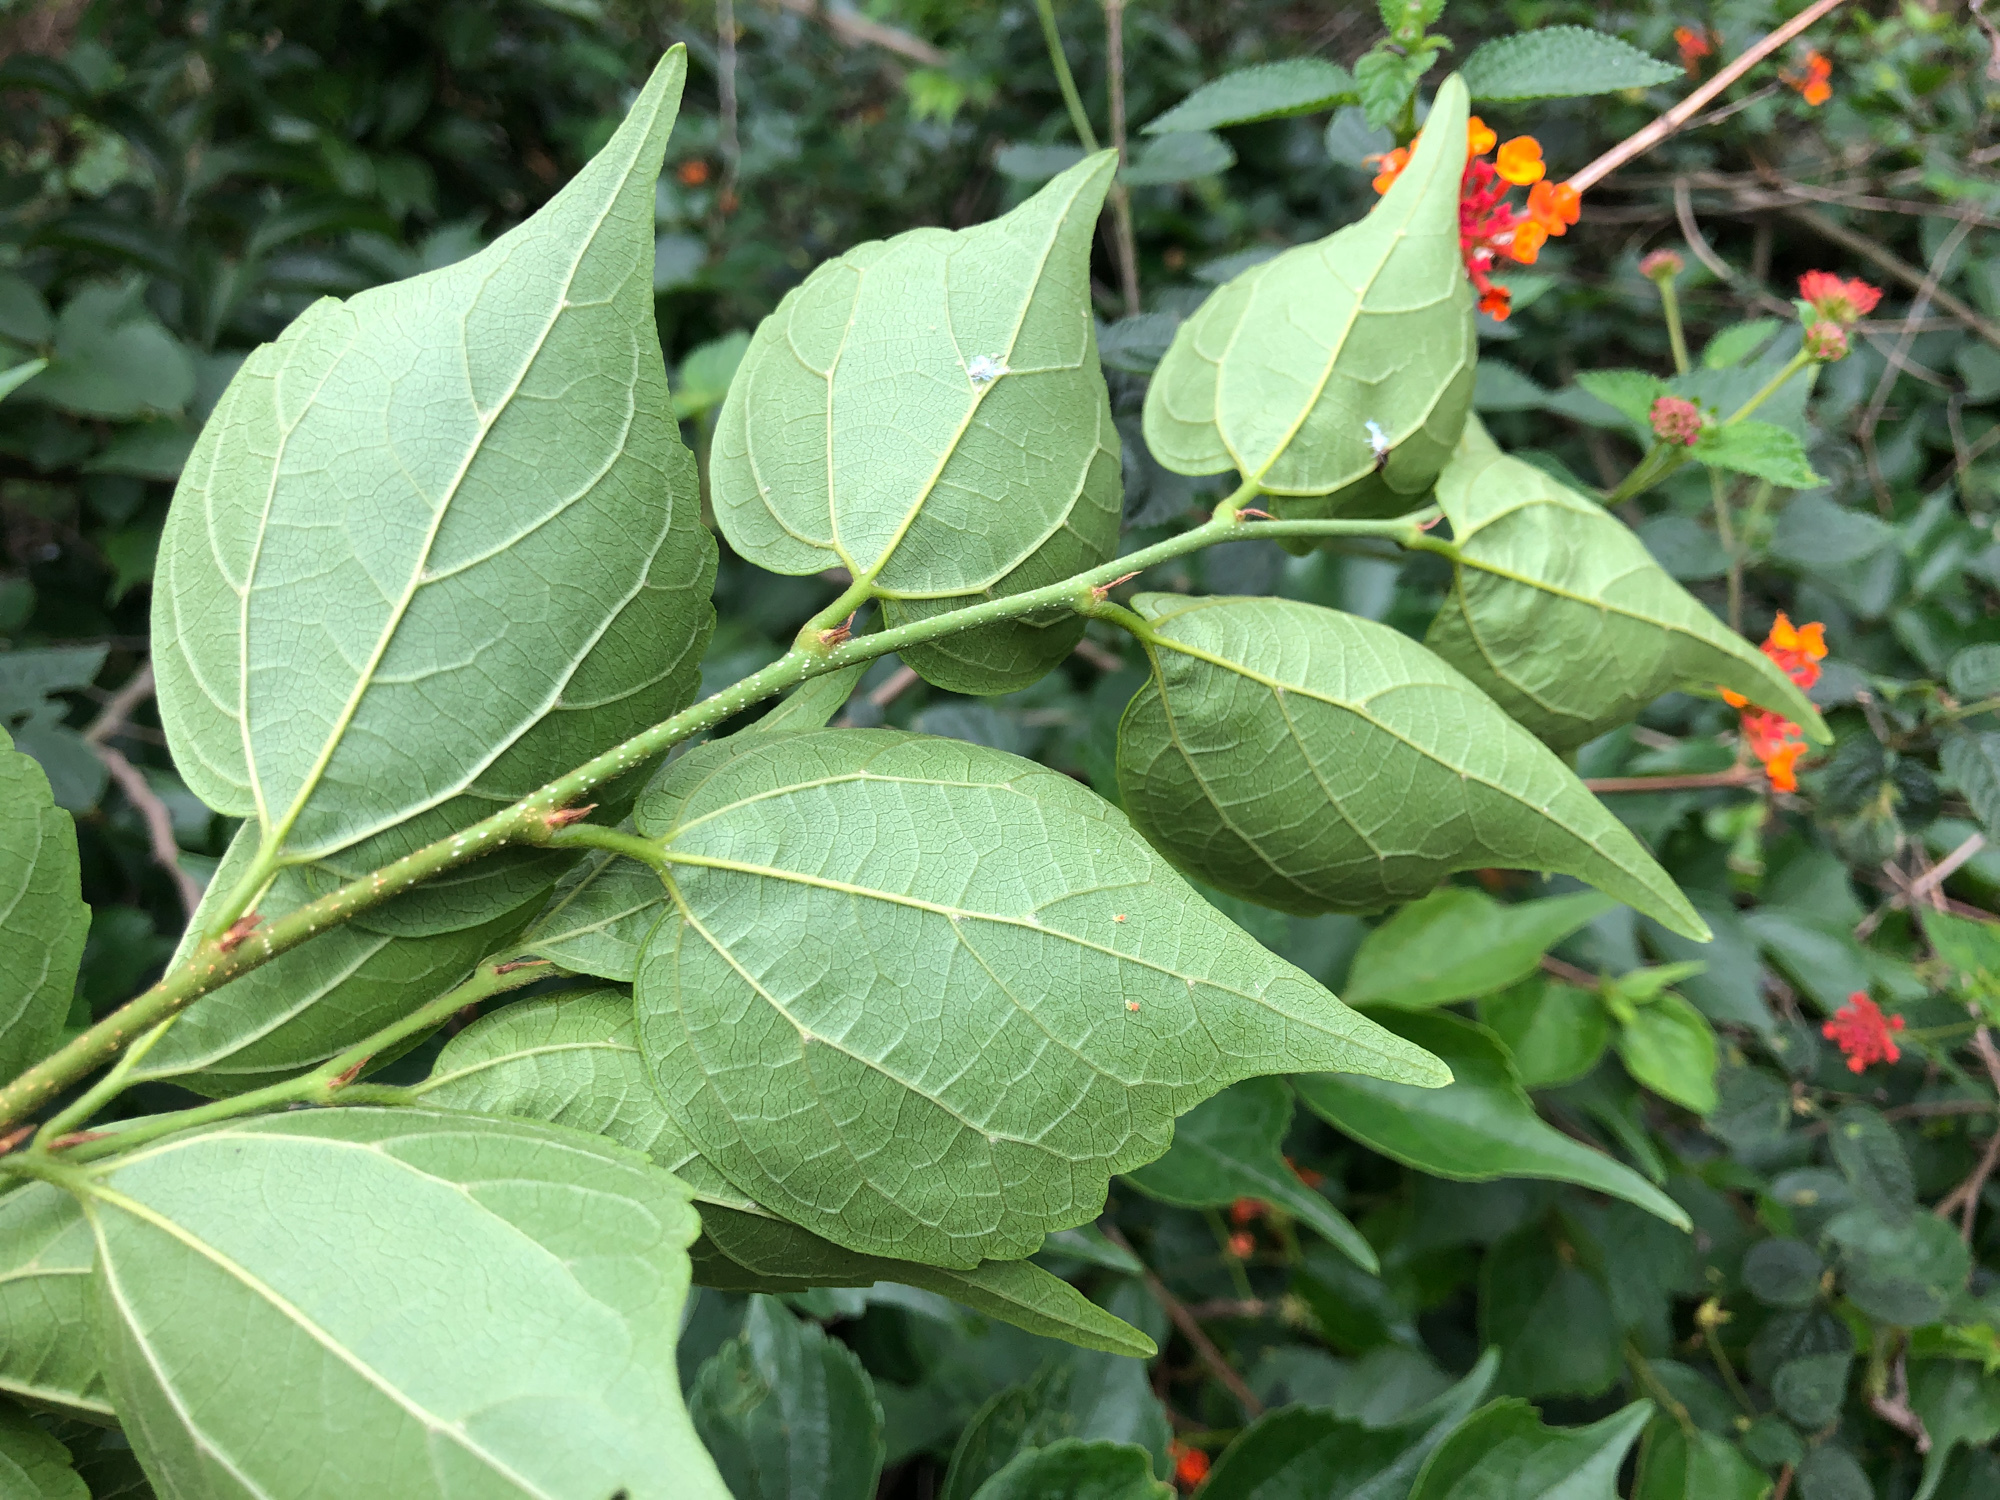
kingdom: Plantae
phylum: Tracheophyta
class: Magnoliopsida
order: Rosales
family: Cannabaceae
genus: Celtis
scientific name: Celtis biondii
